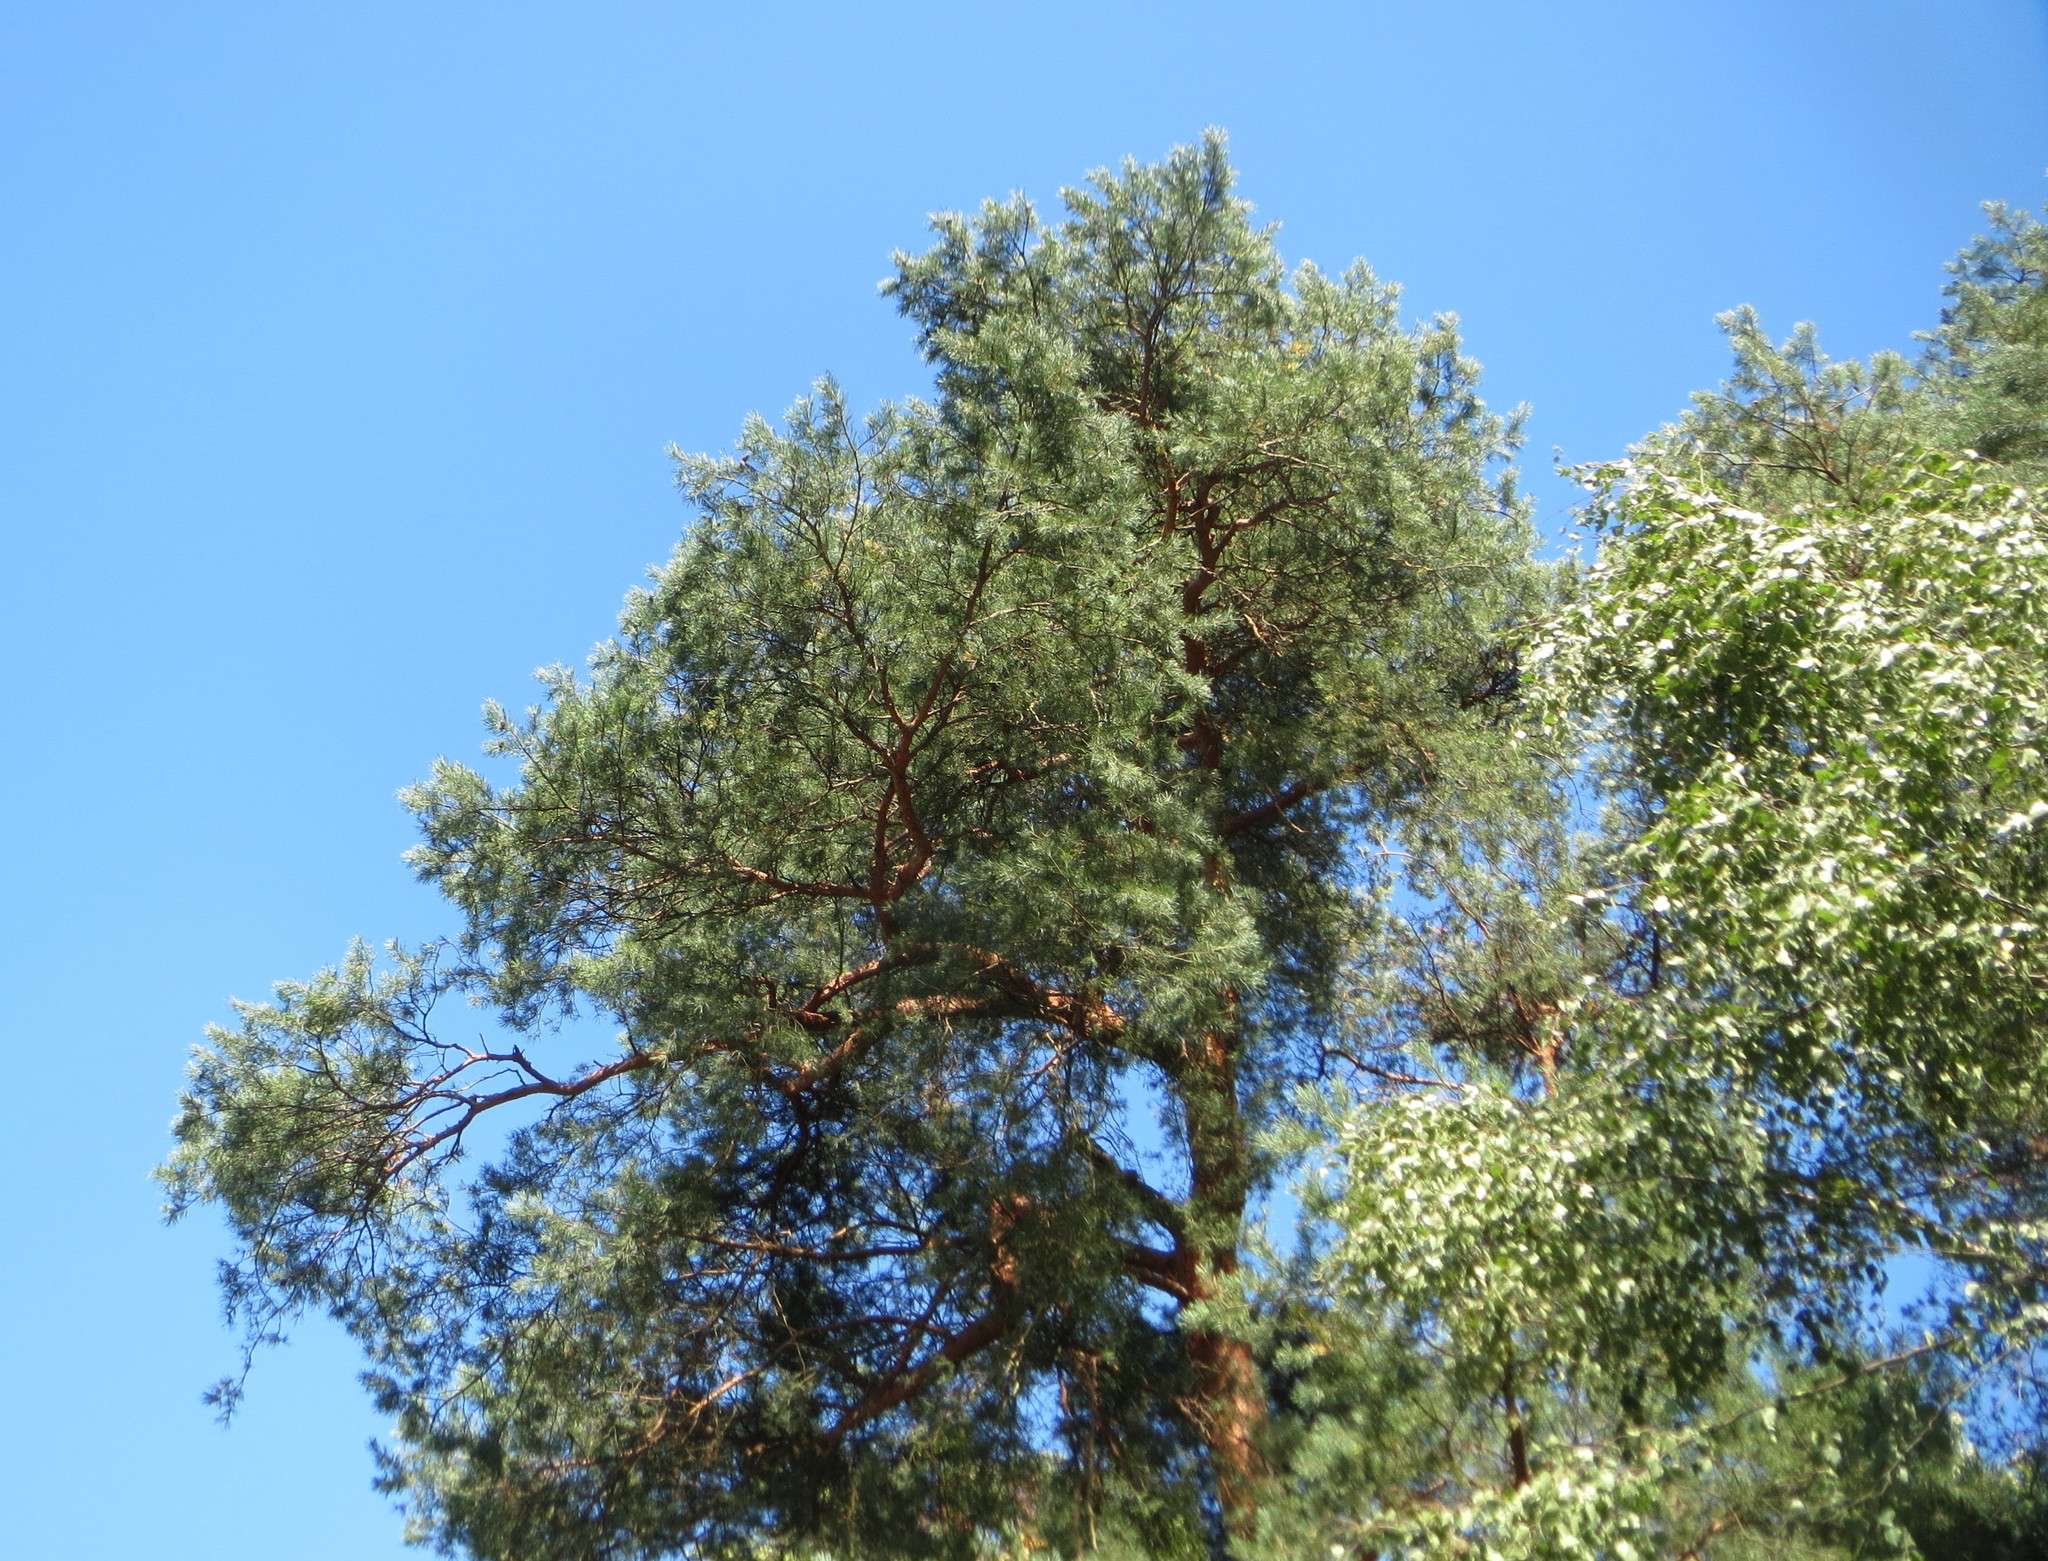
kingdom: Plantae
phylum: Tracheophyta
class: Pinopsida
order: Pinales
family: Pinaceae
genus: Pinus
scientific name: Pinus sylvestris
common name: Scots pine
